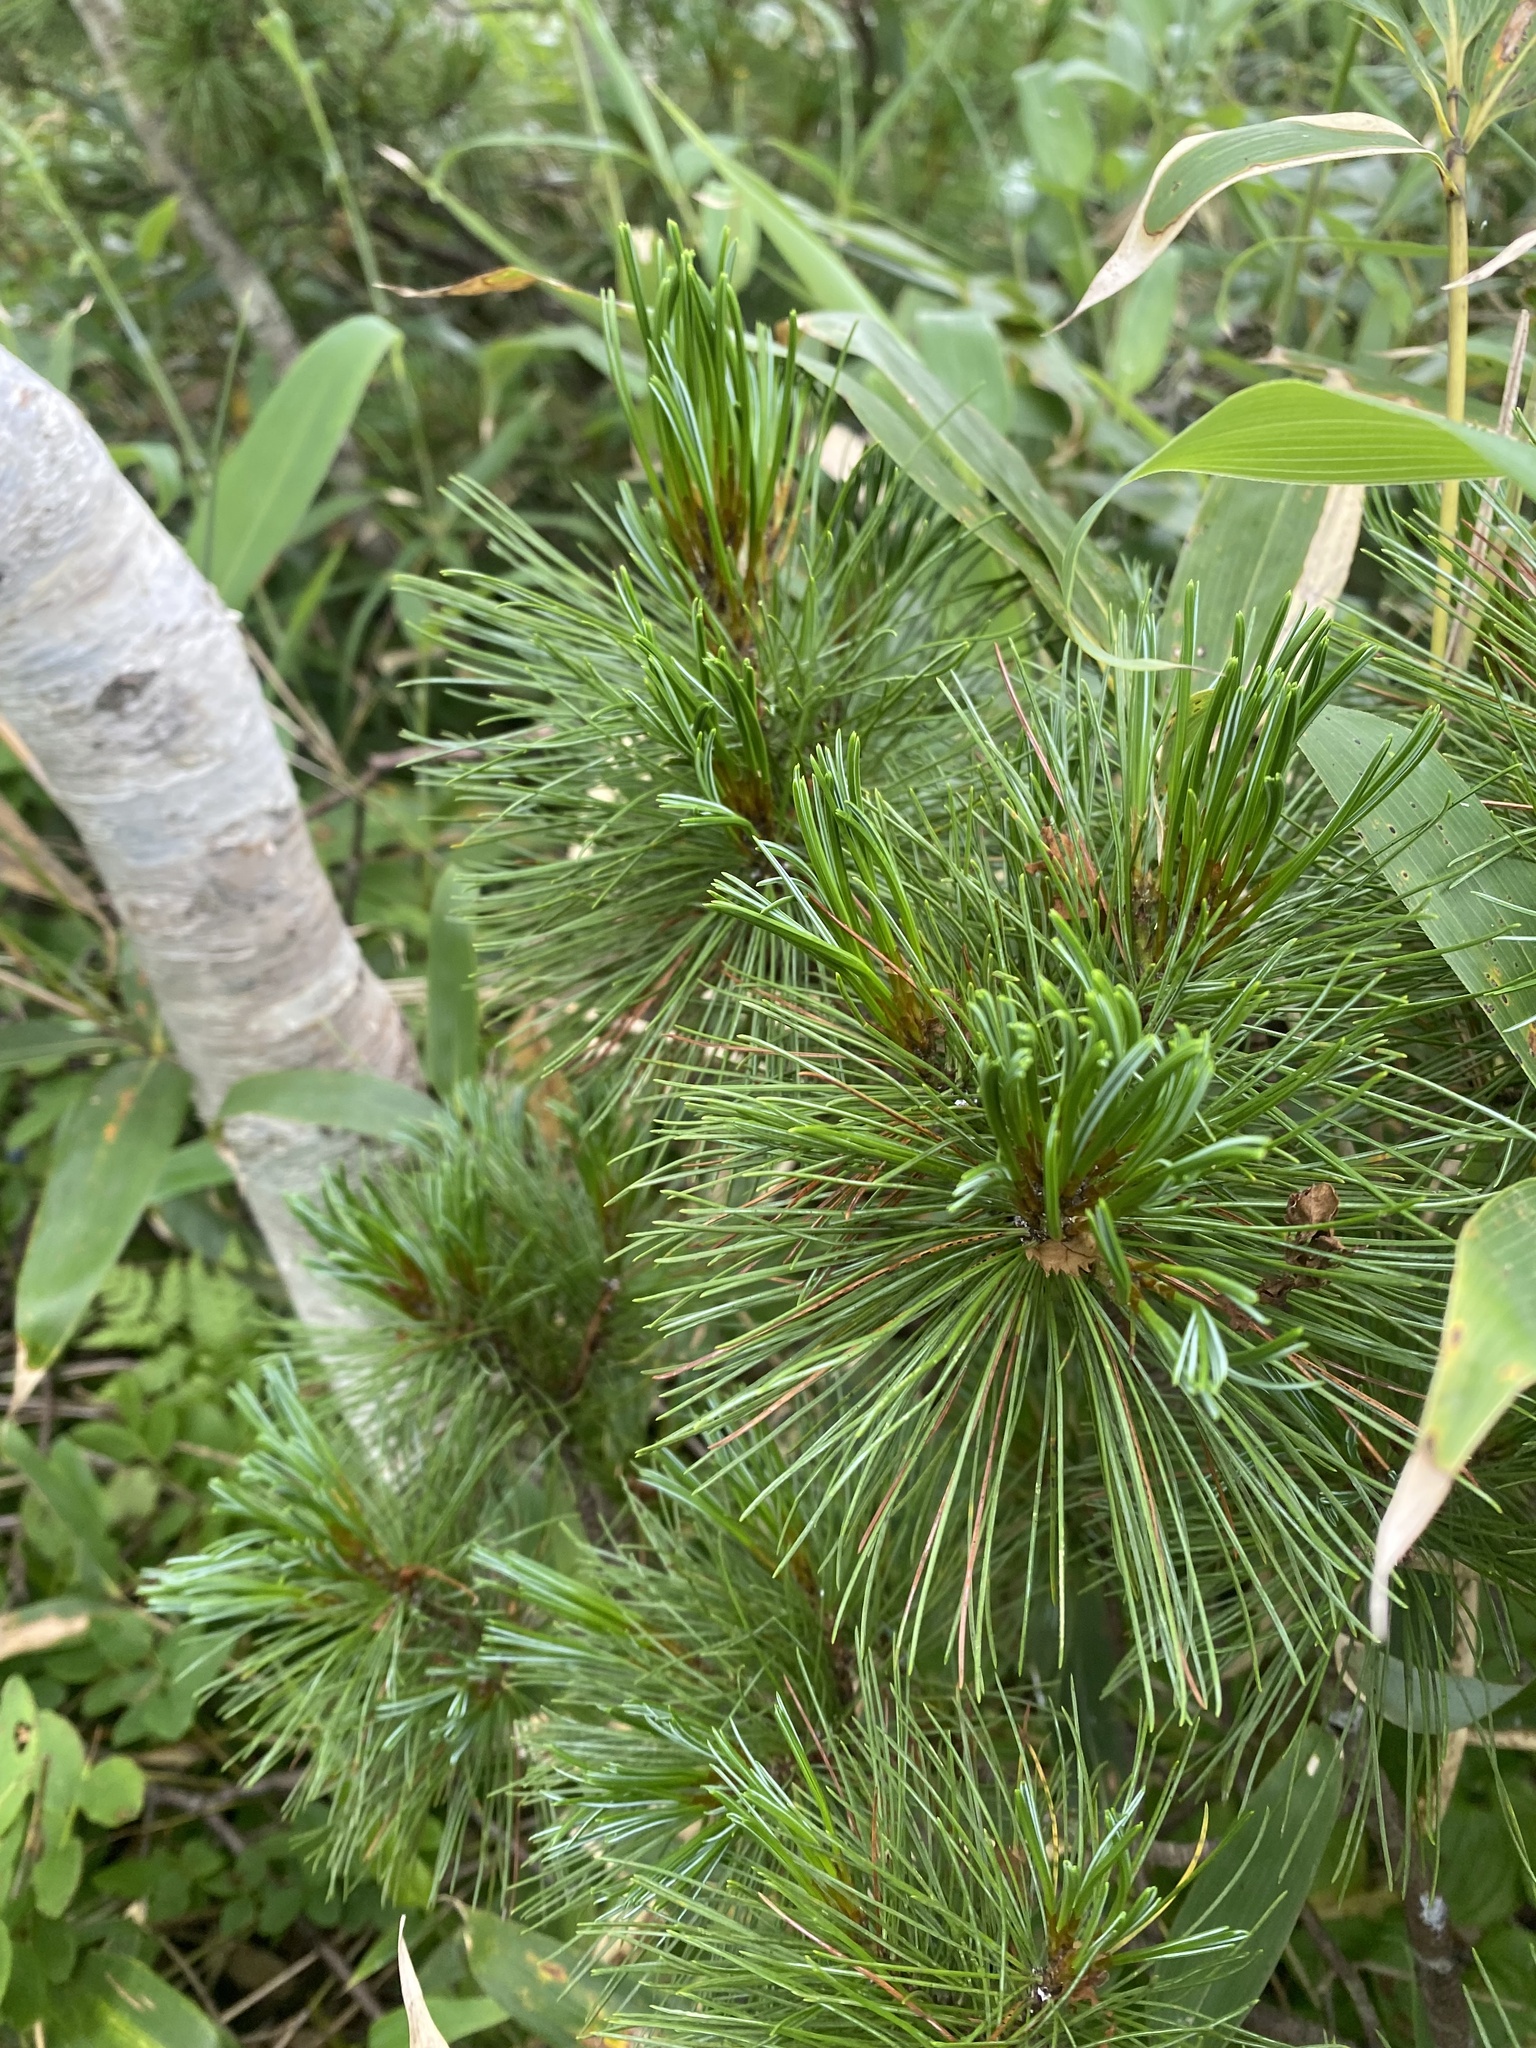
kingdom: Plantae
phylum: Tracheophyta
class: Pinopsida
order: Pinales
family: Pinaceae
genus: Pinus
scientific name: Pinus pumila
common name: Dwarf siberian pine
